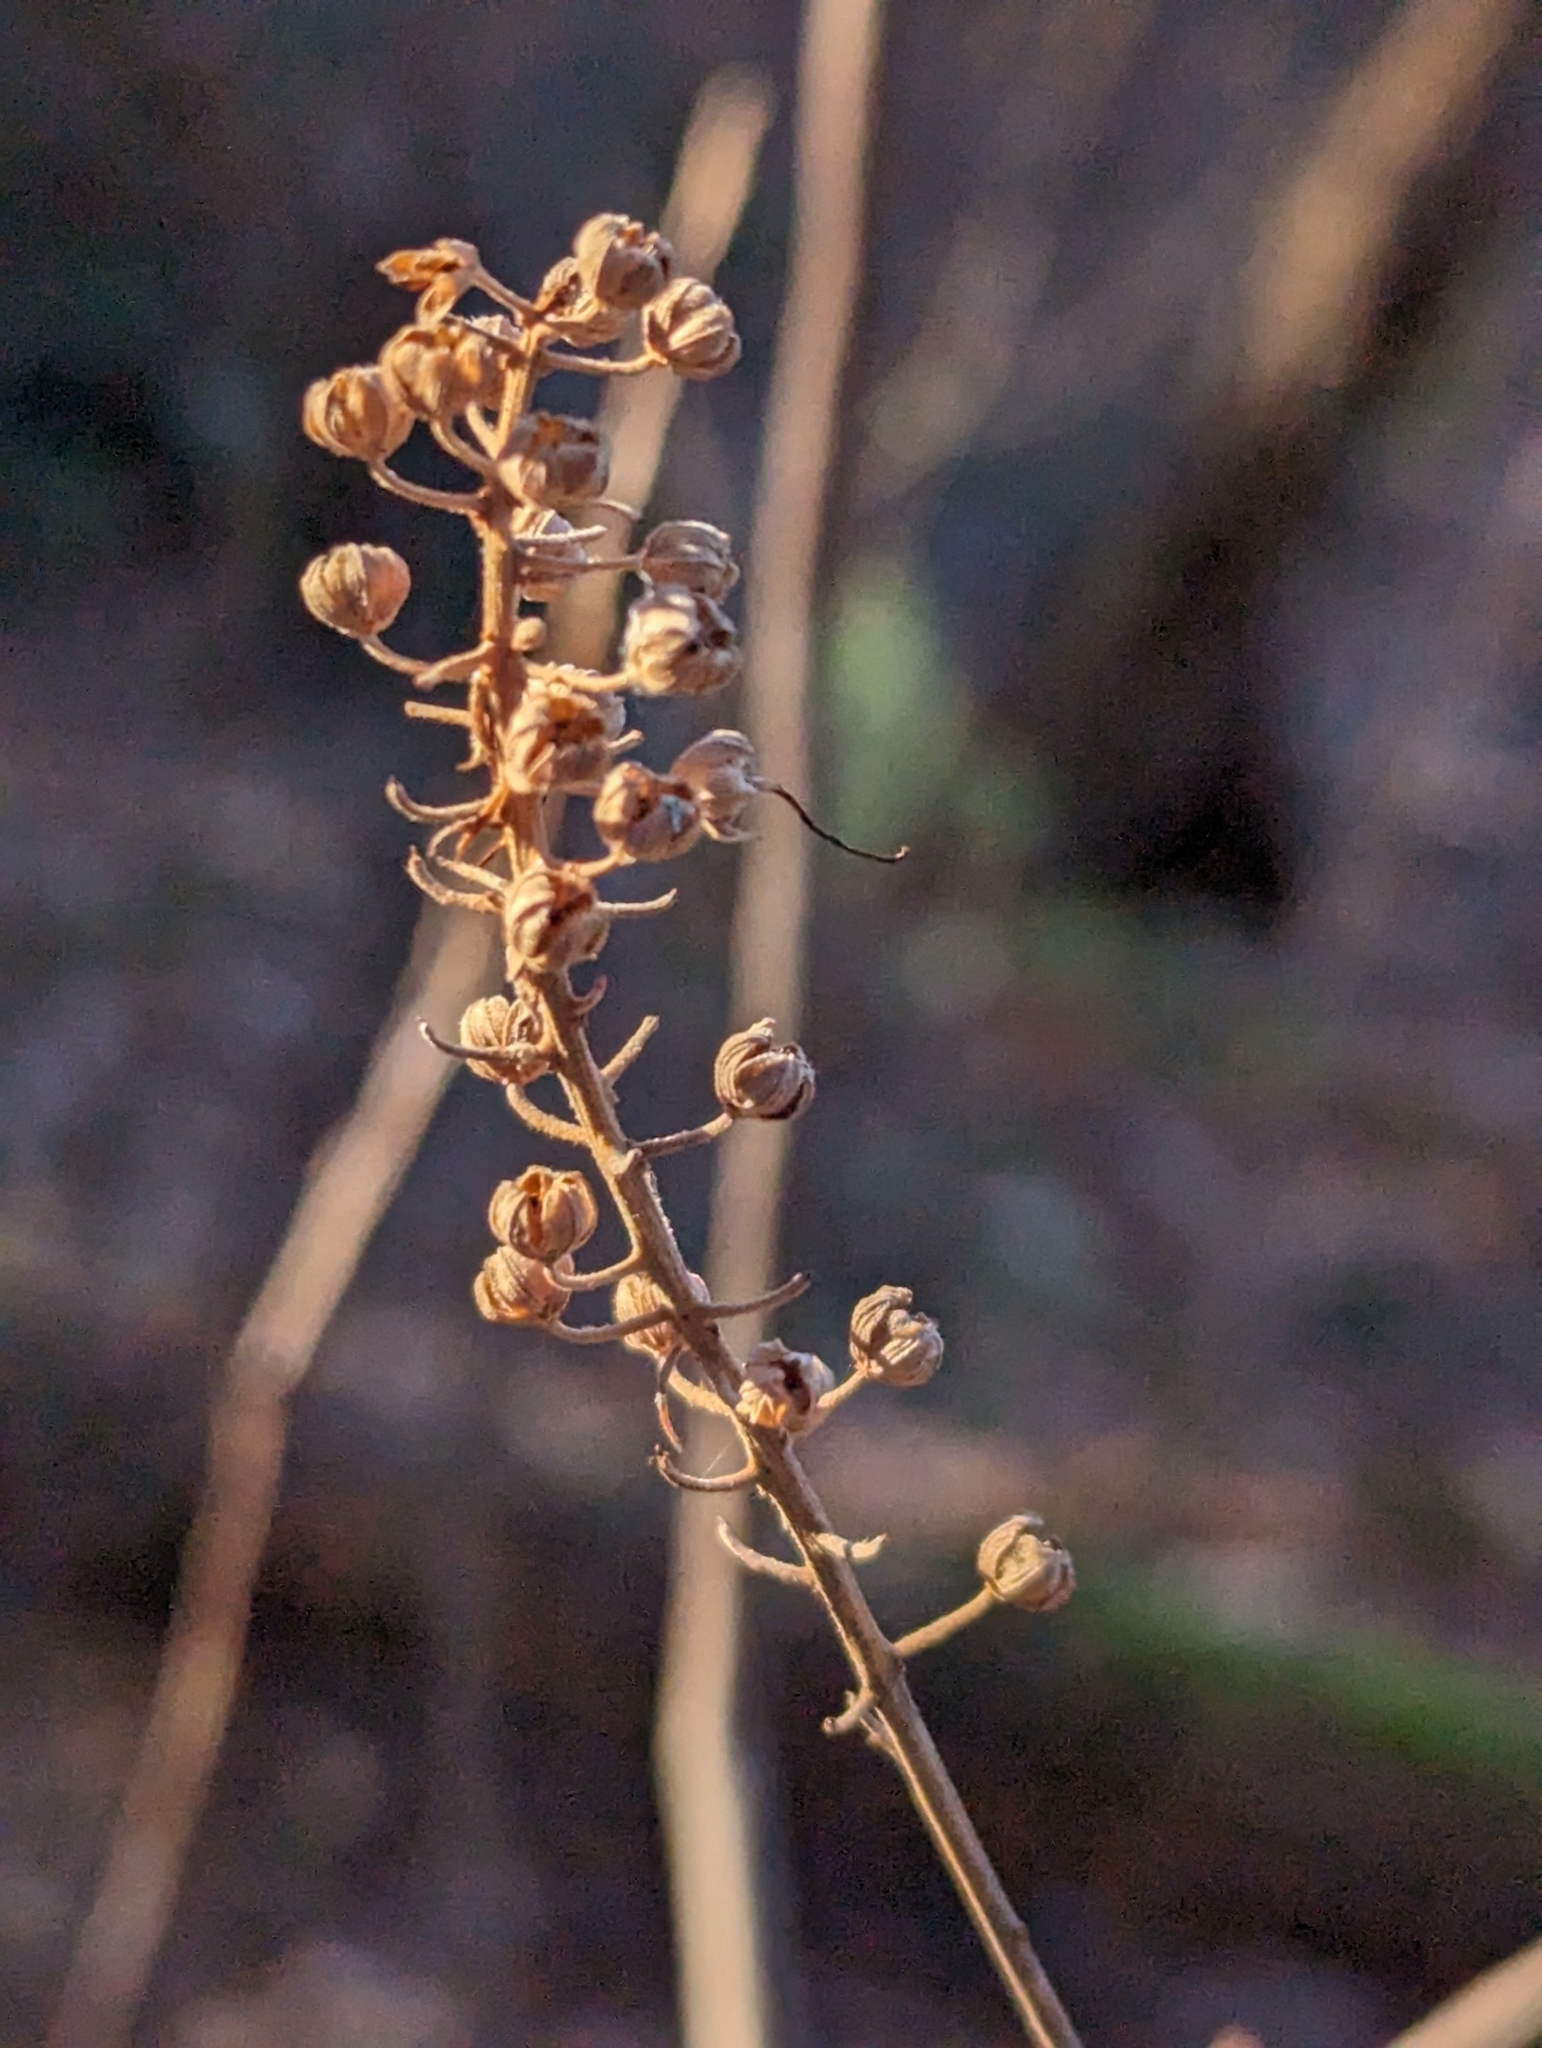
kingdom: Plantae
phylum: Tracheophyta
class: Magnoliopsida
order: Ericales
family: Clethraceae
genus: Clethra
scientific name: Clethra alnifolia
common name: Sweet pepperbush
